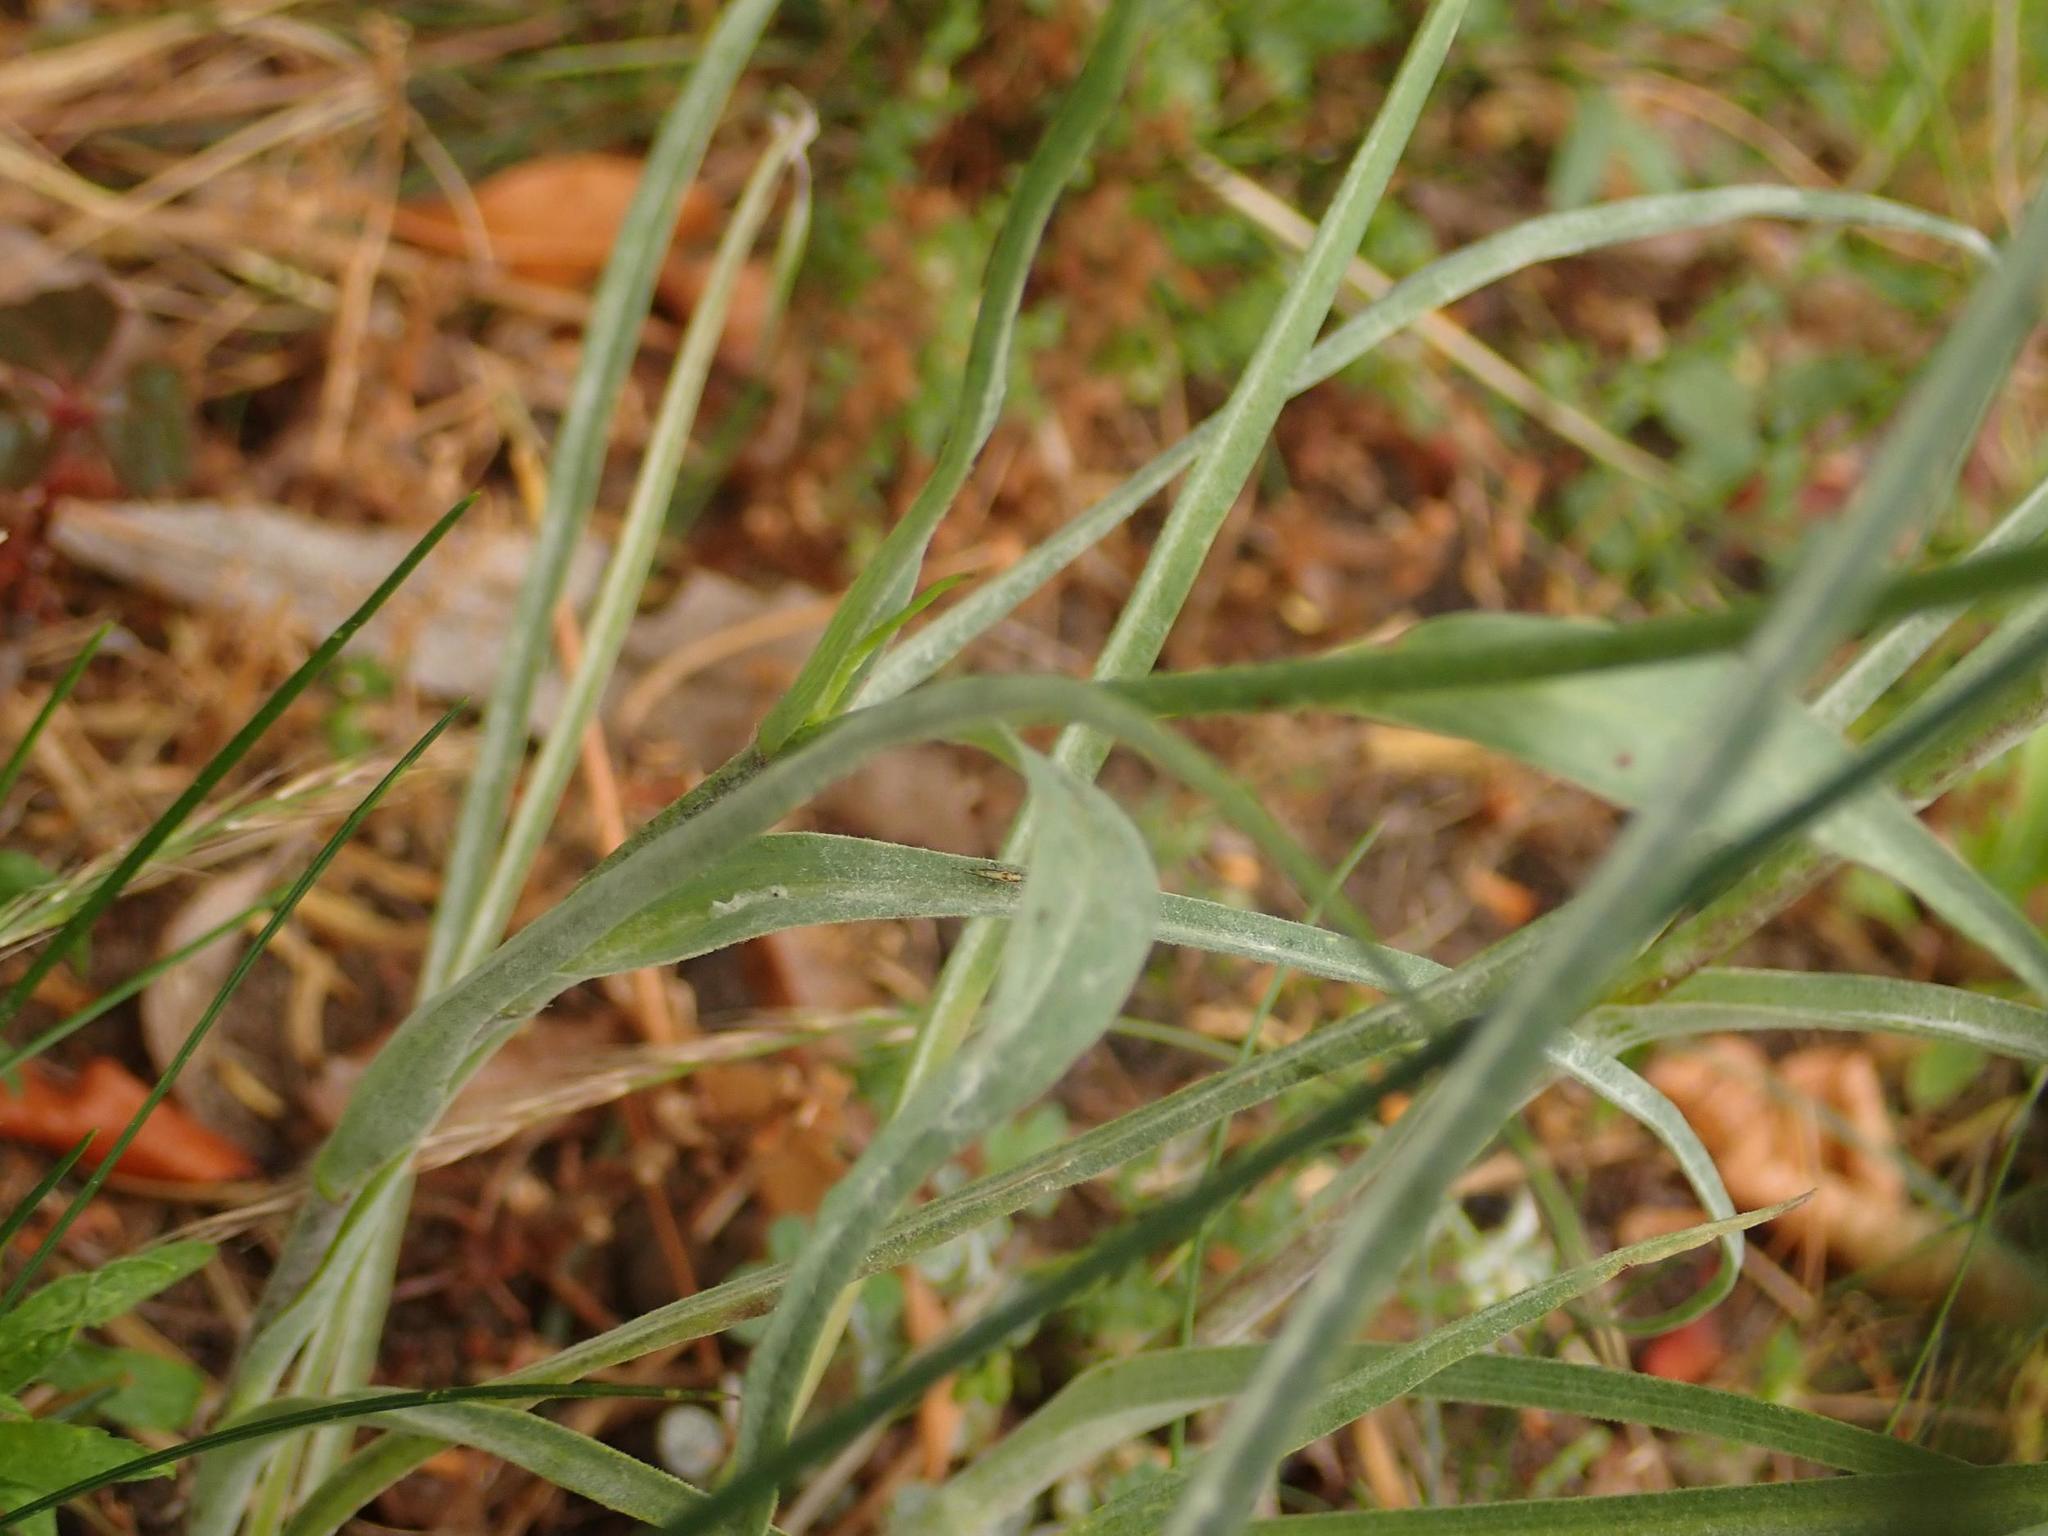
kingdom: Plantae
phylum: Tracheophyta
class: Magnoliopsida
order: Asterales
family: Asteraceae
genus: Tragopogon
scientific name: Tragopogon dubius
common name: Yellow salsify
